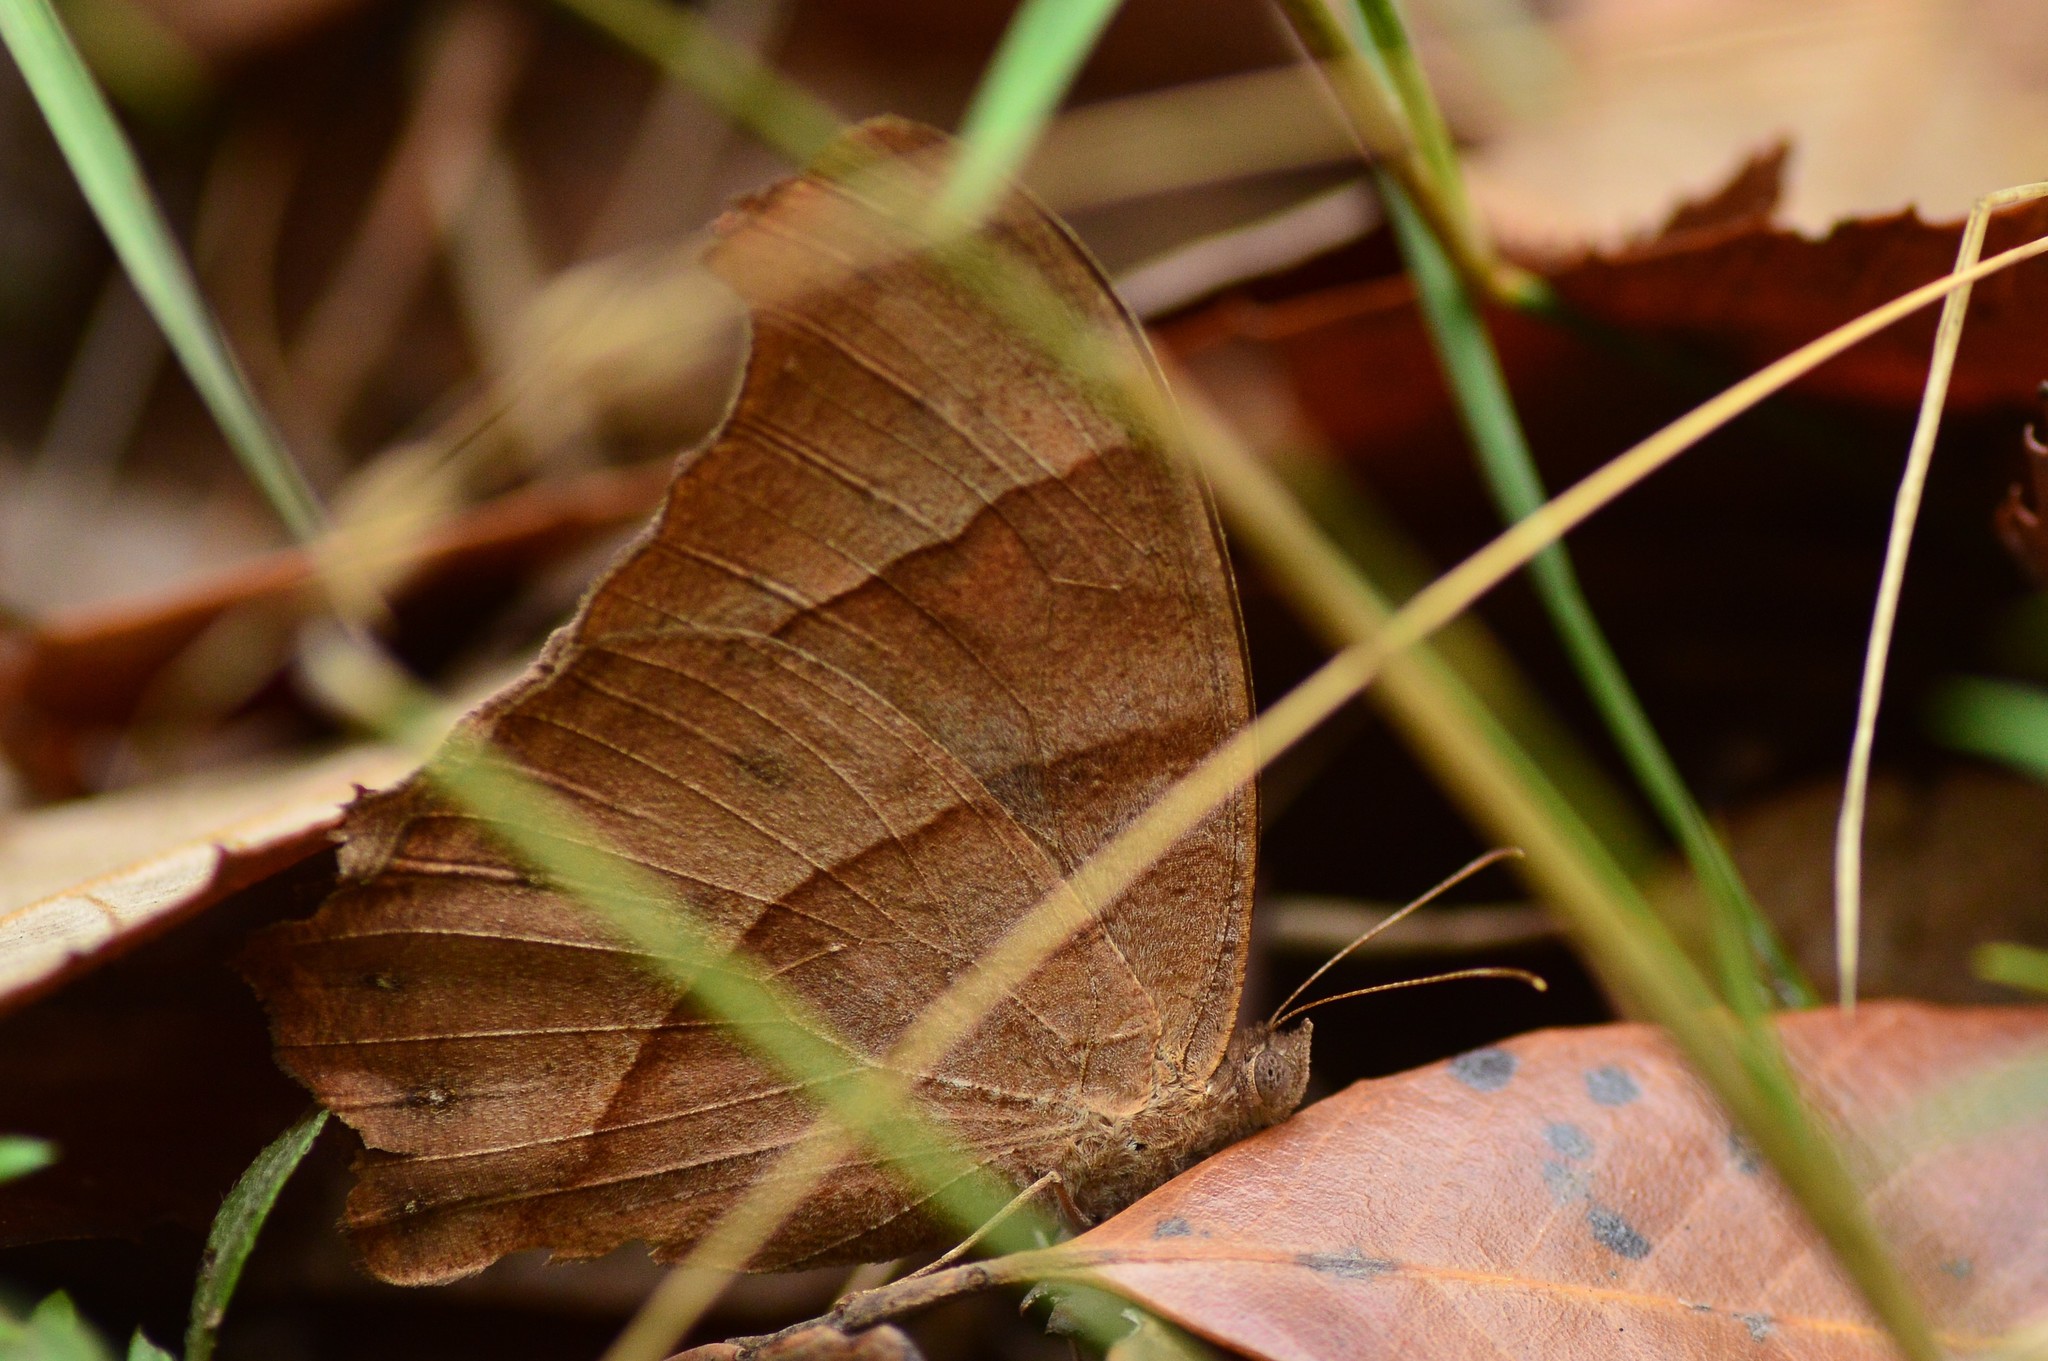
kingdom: Animalia
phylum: Arthropoda
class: Insecta
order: Lepidoptera
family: Nymphalidae
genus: Melanitis
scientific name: Melanitis leda
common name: Twilight brown
